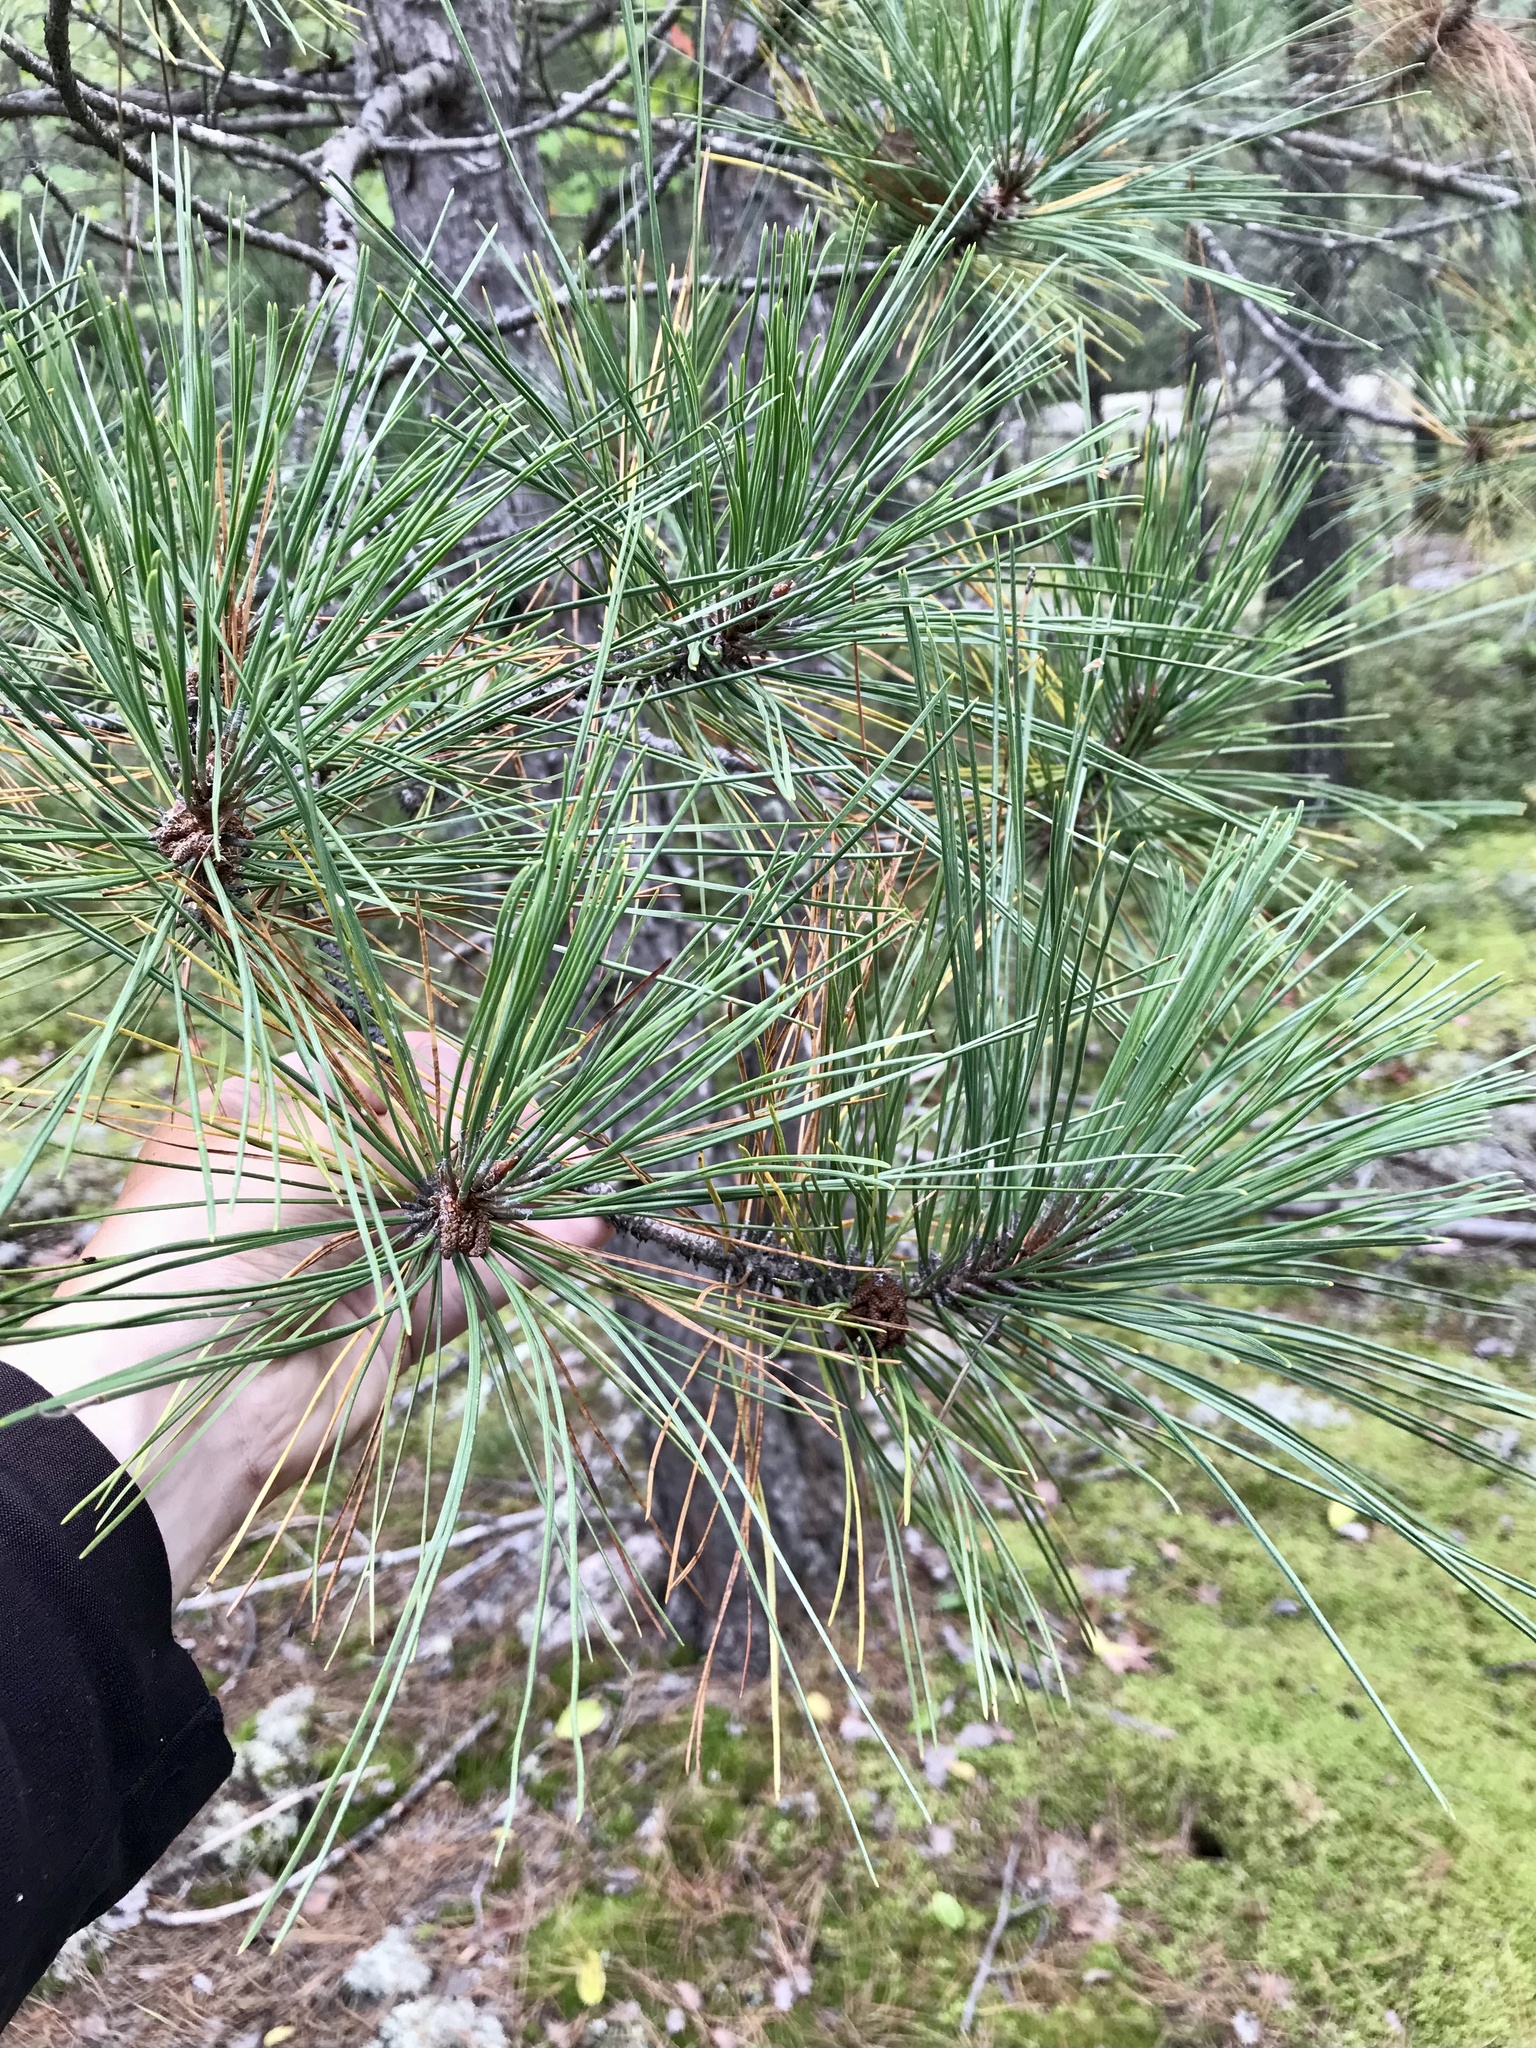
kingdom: Plantae
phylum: Tracheophyta
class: Pinopsida
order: Pinales
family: Pinaceae
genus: Pinus
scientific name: Pinus resinosa
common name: Norway pine
